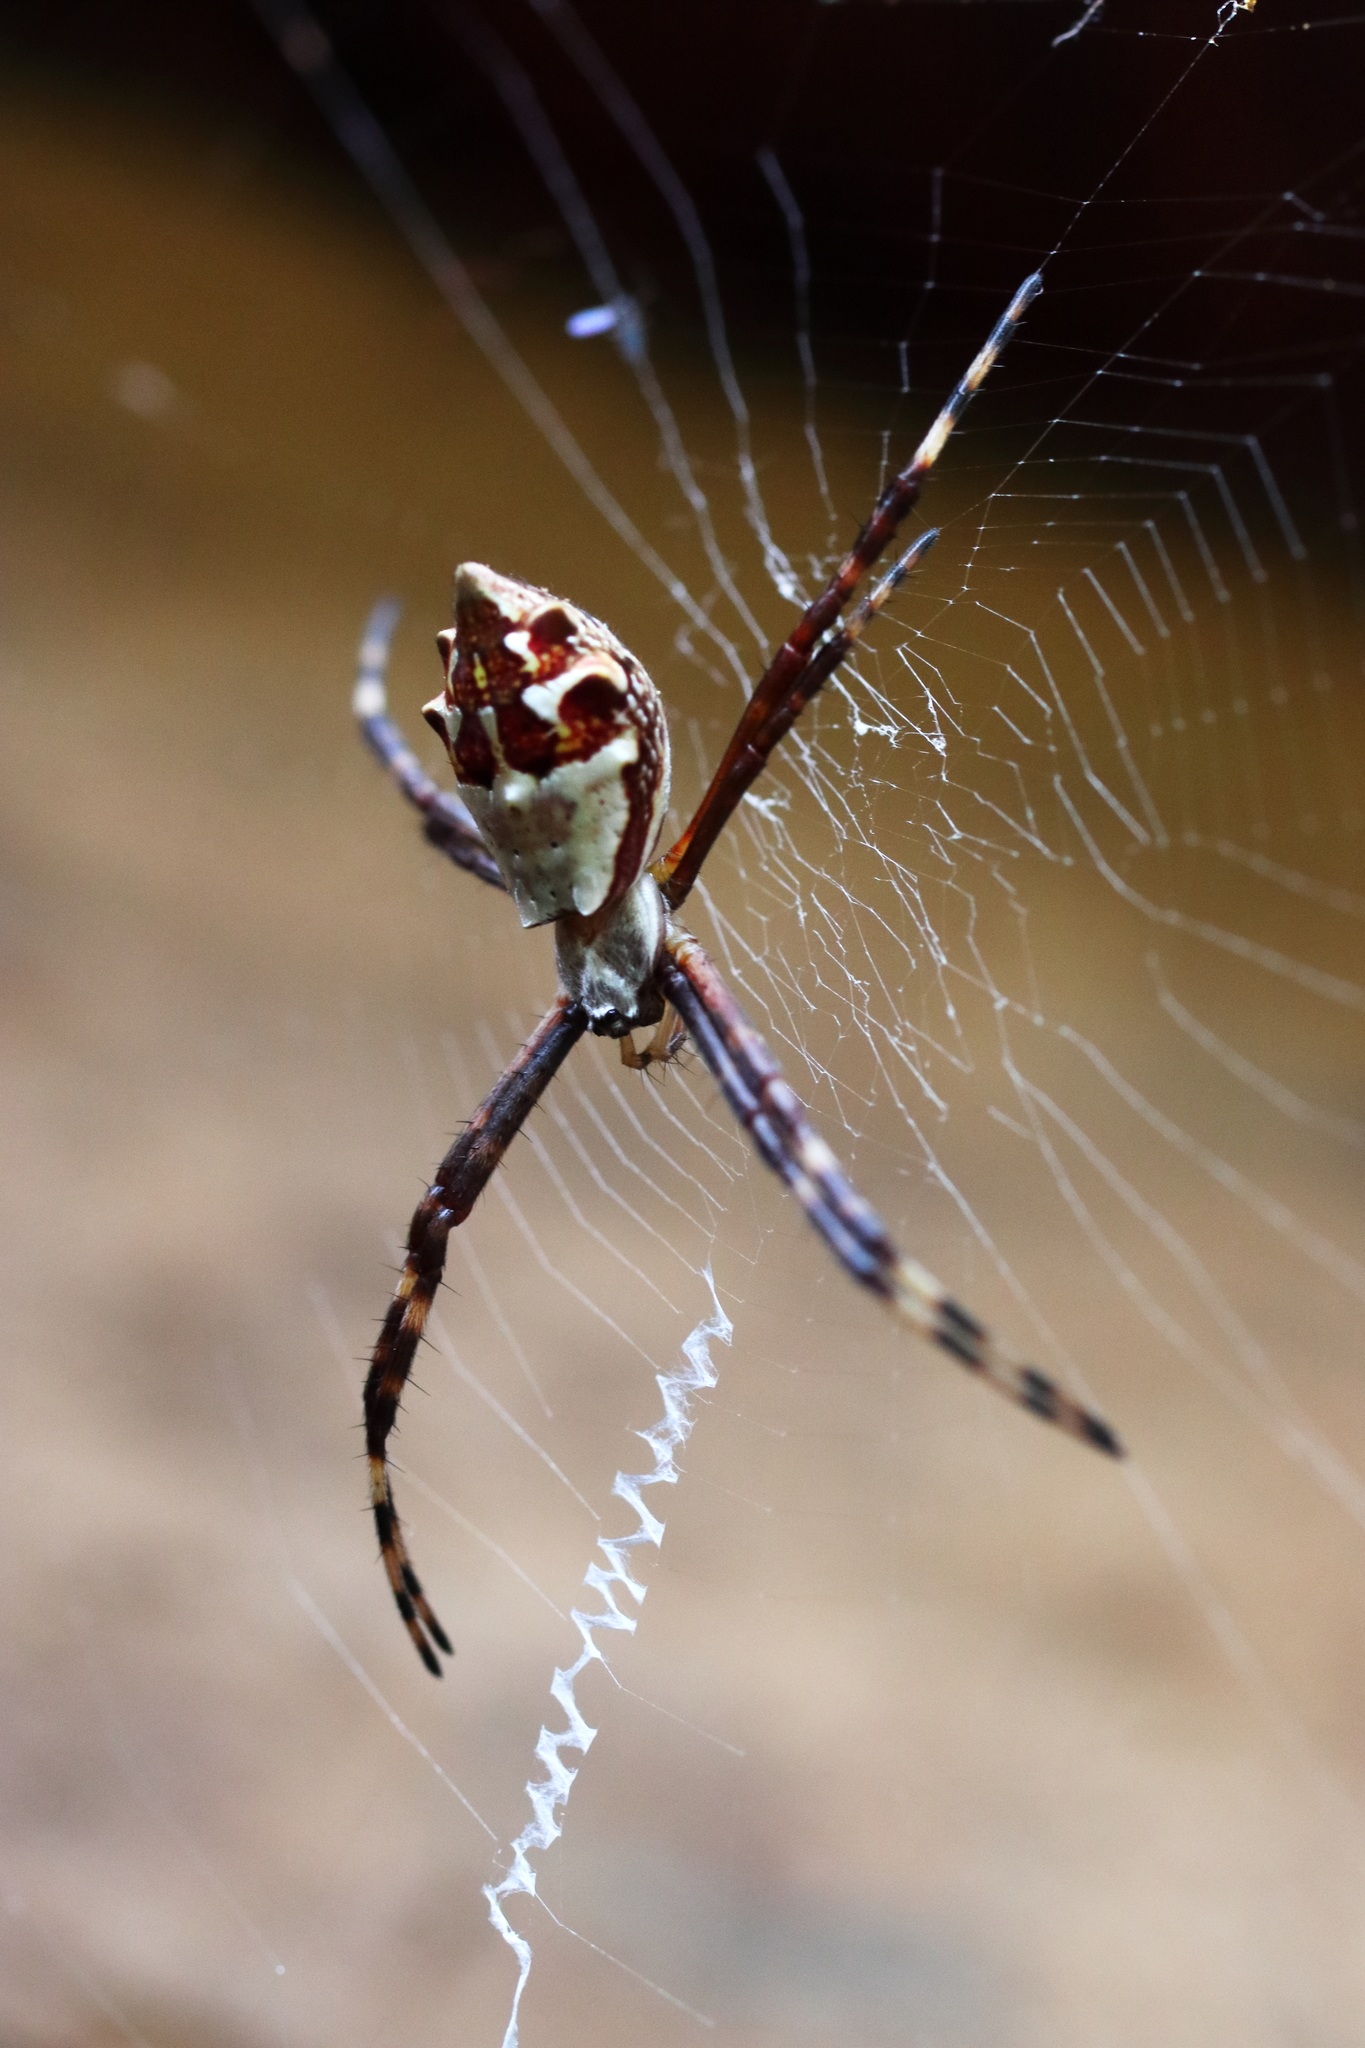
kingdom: Animalia
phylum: Arthropoda
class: Arachnida
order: Araneae
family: Araneidae
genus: Argiope
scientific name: Argiope argentata
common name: Orb weavers
